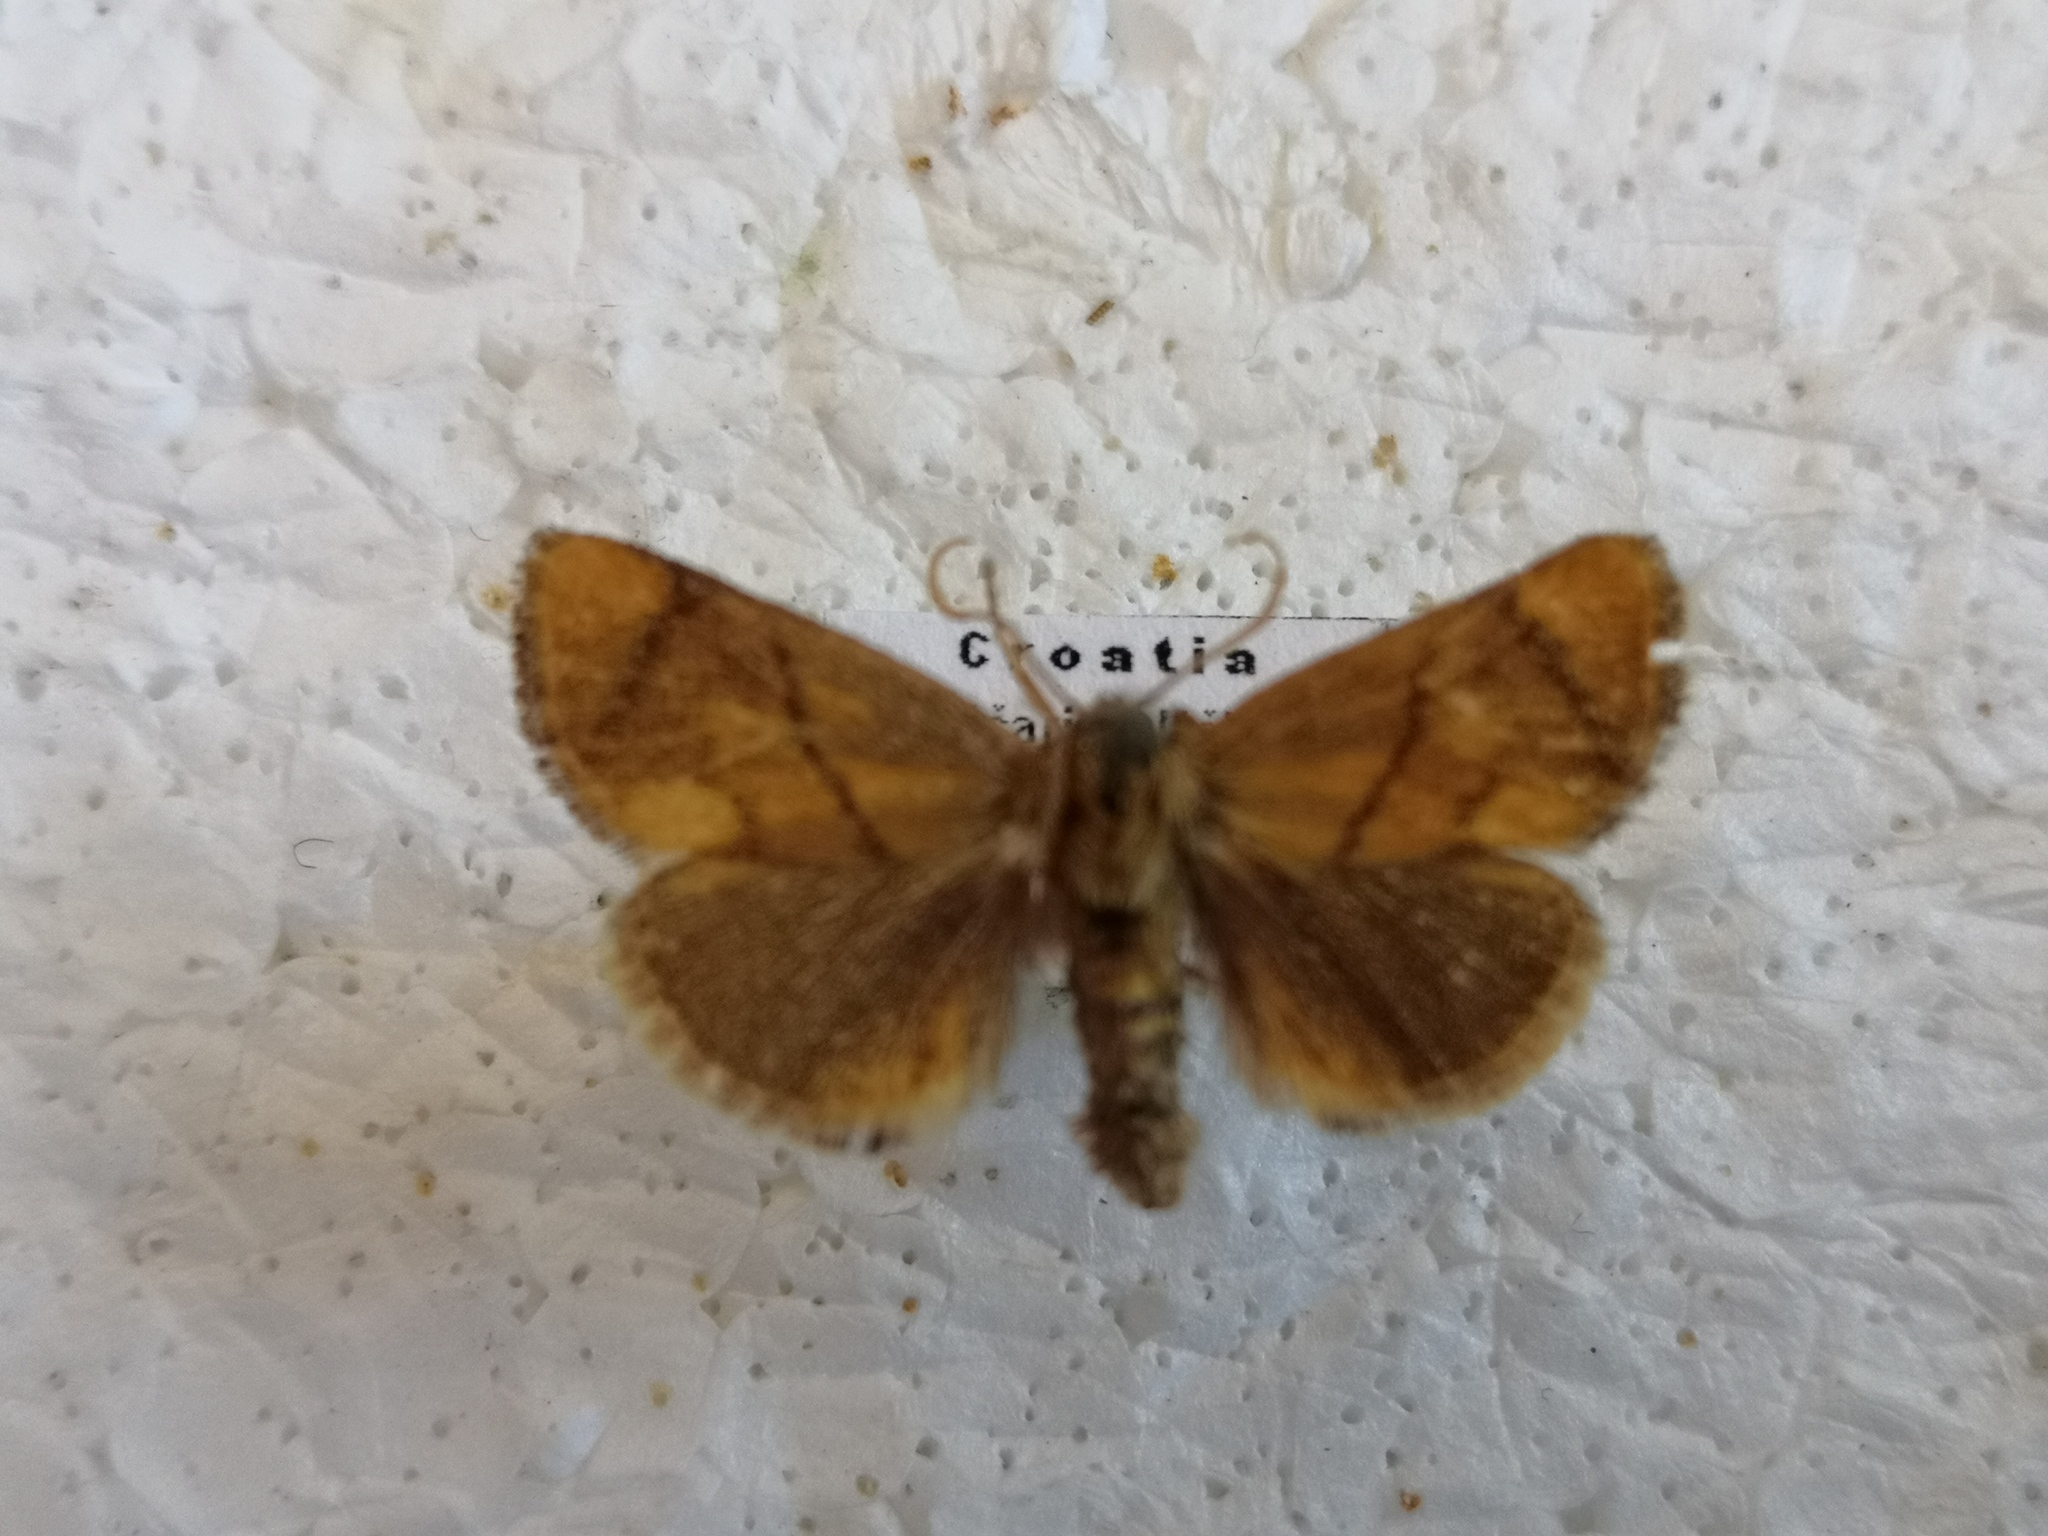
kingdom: Animalia
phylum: Arthropoda
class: Insecta
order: Lepidoptera
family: Limacodidae
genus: Apoda
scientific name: Apoda limacodes
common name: Festoon
